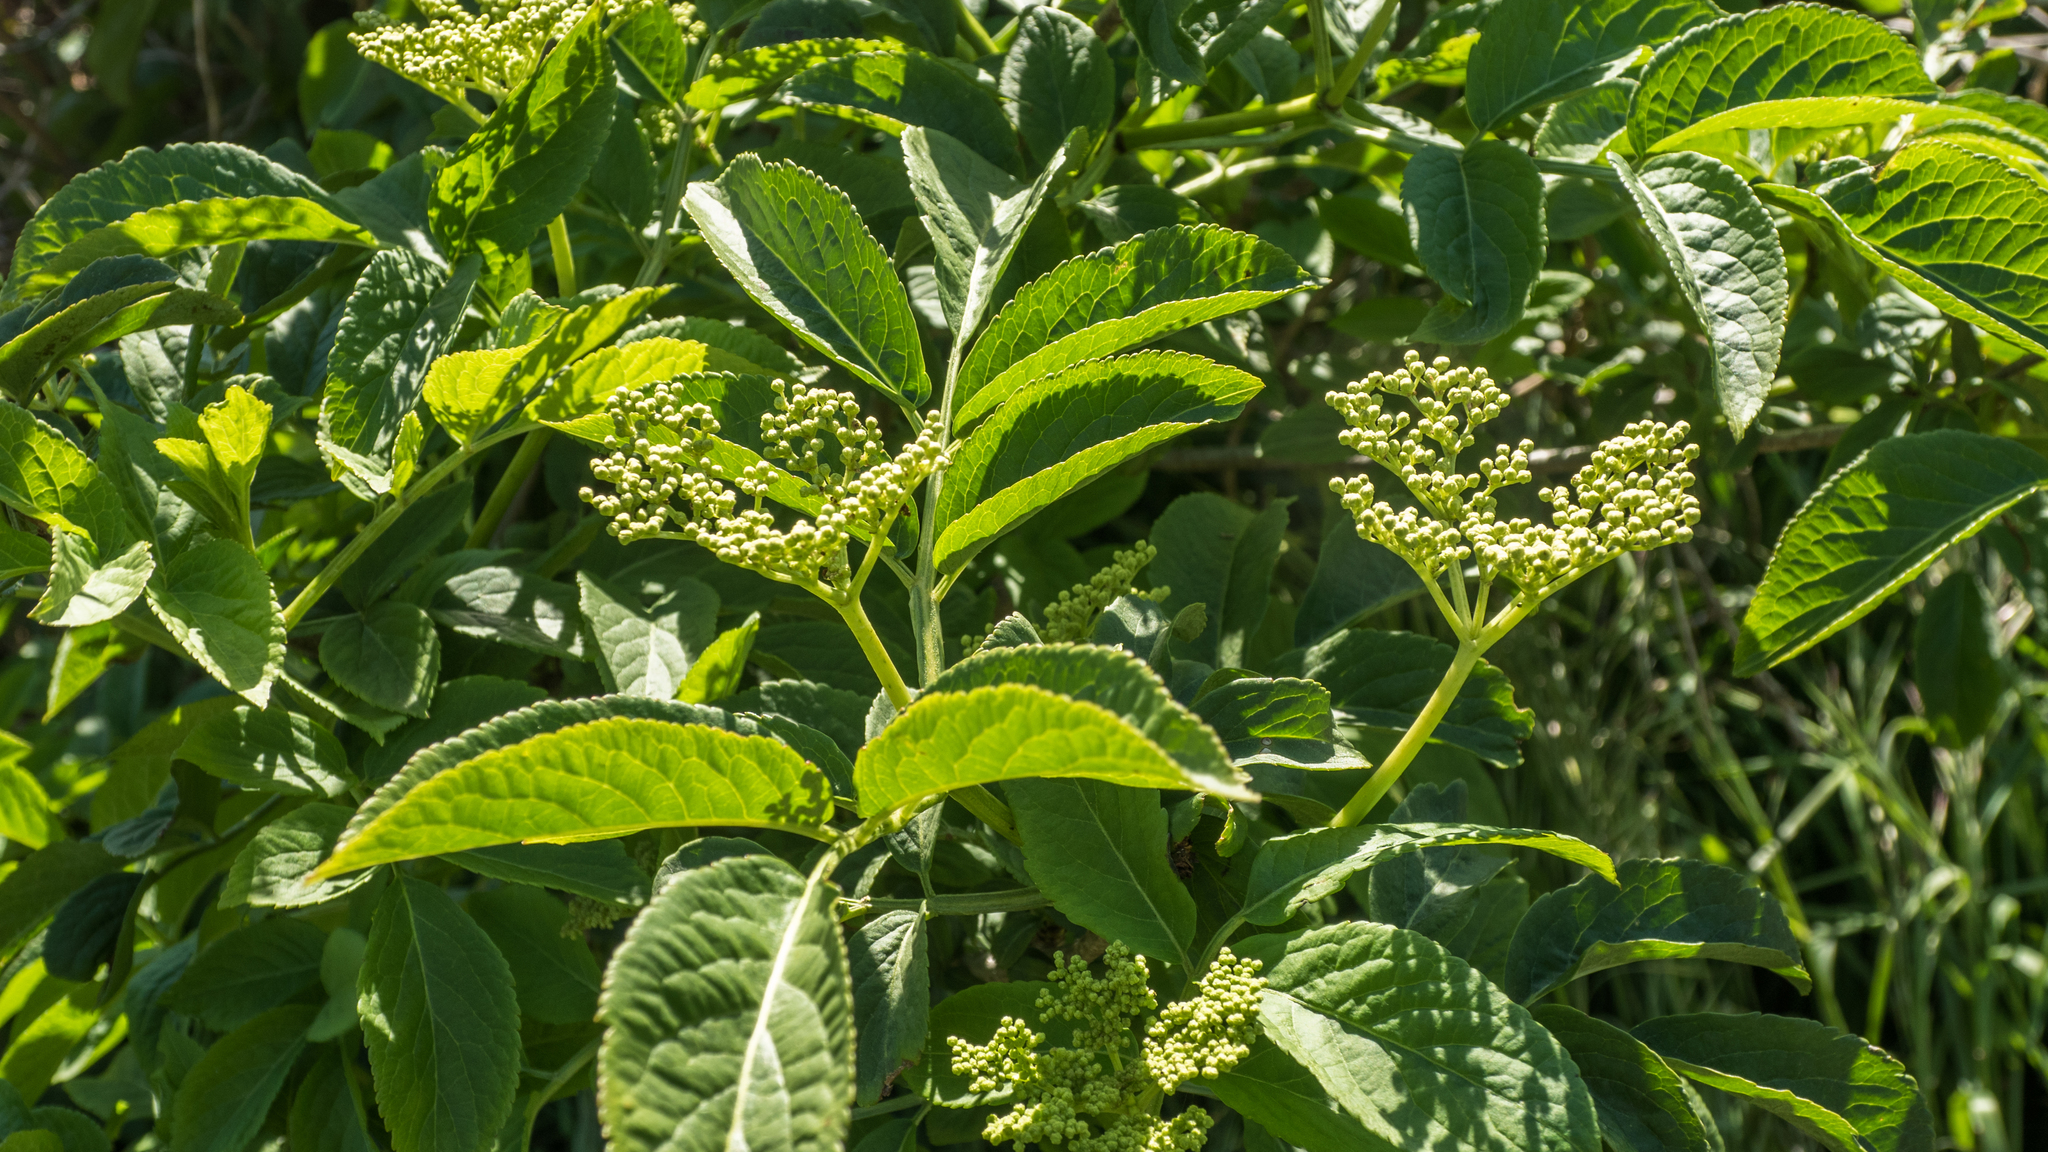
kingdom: Plantae
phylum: Tracheophyta
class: Magnoliopsida
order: Dipsacales
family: Viburnaceae
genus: Sambucus
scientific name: Sambucus nigra
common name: Elder
